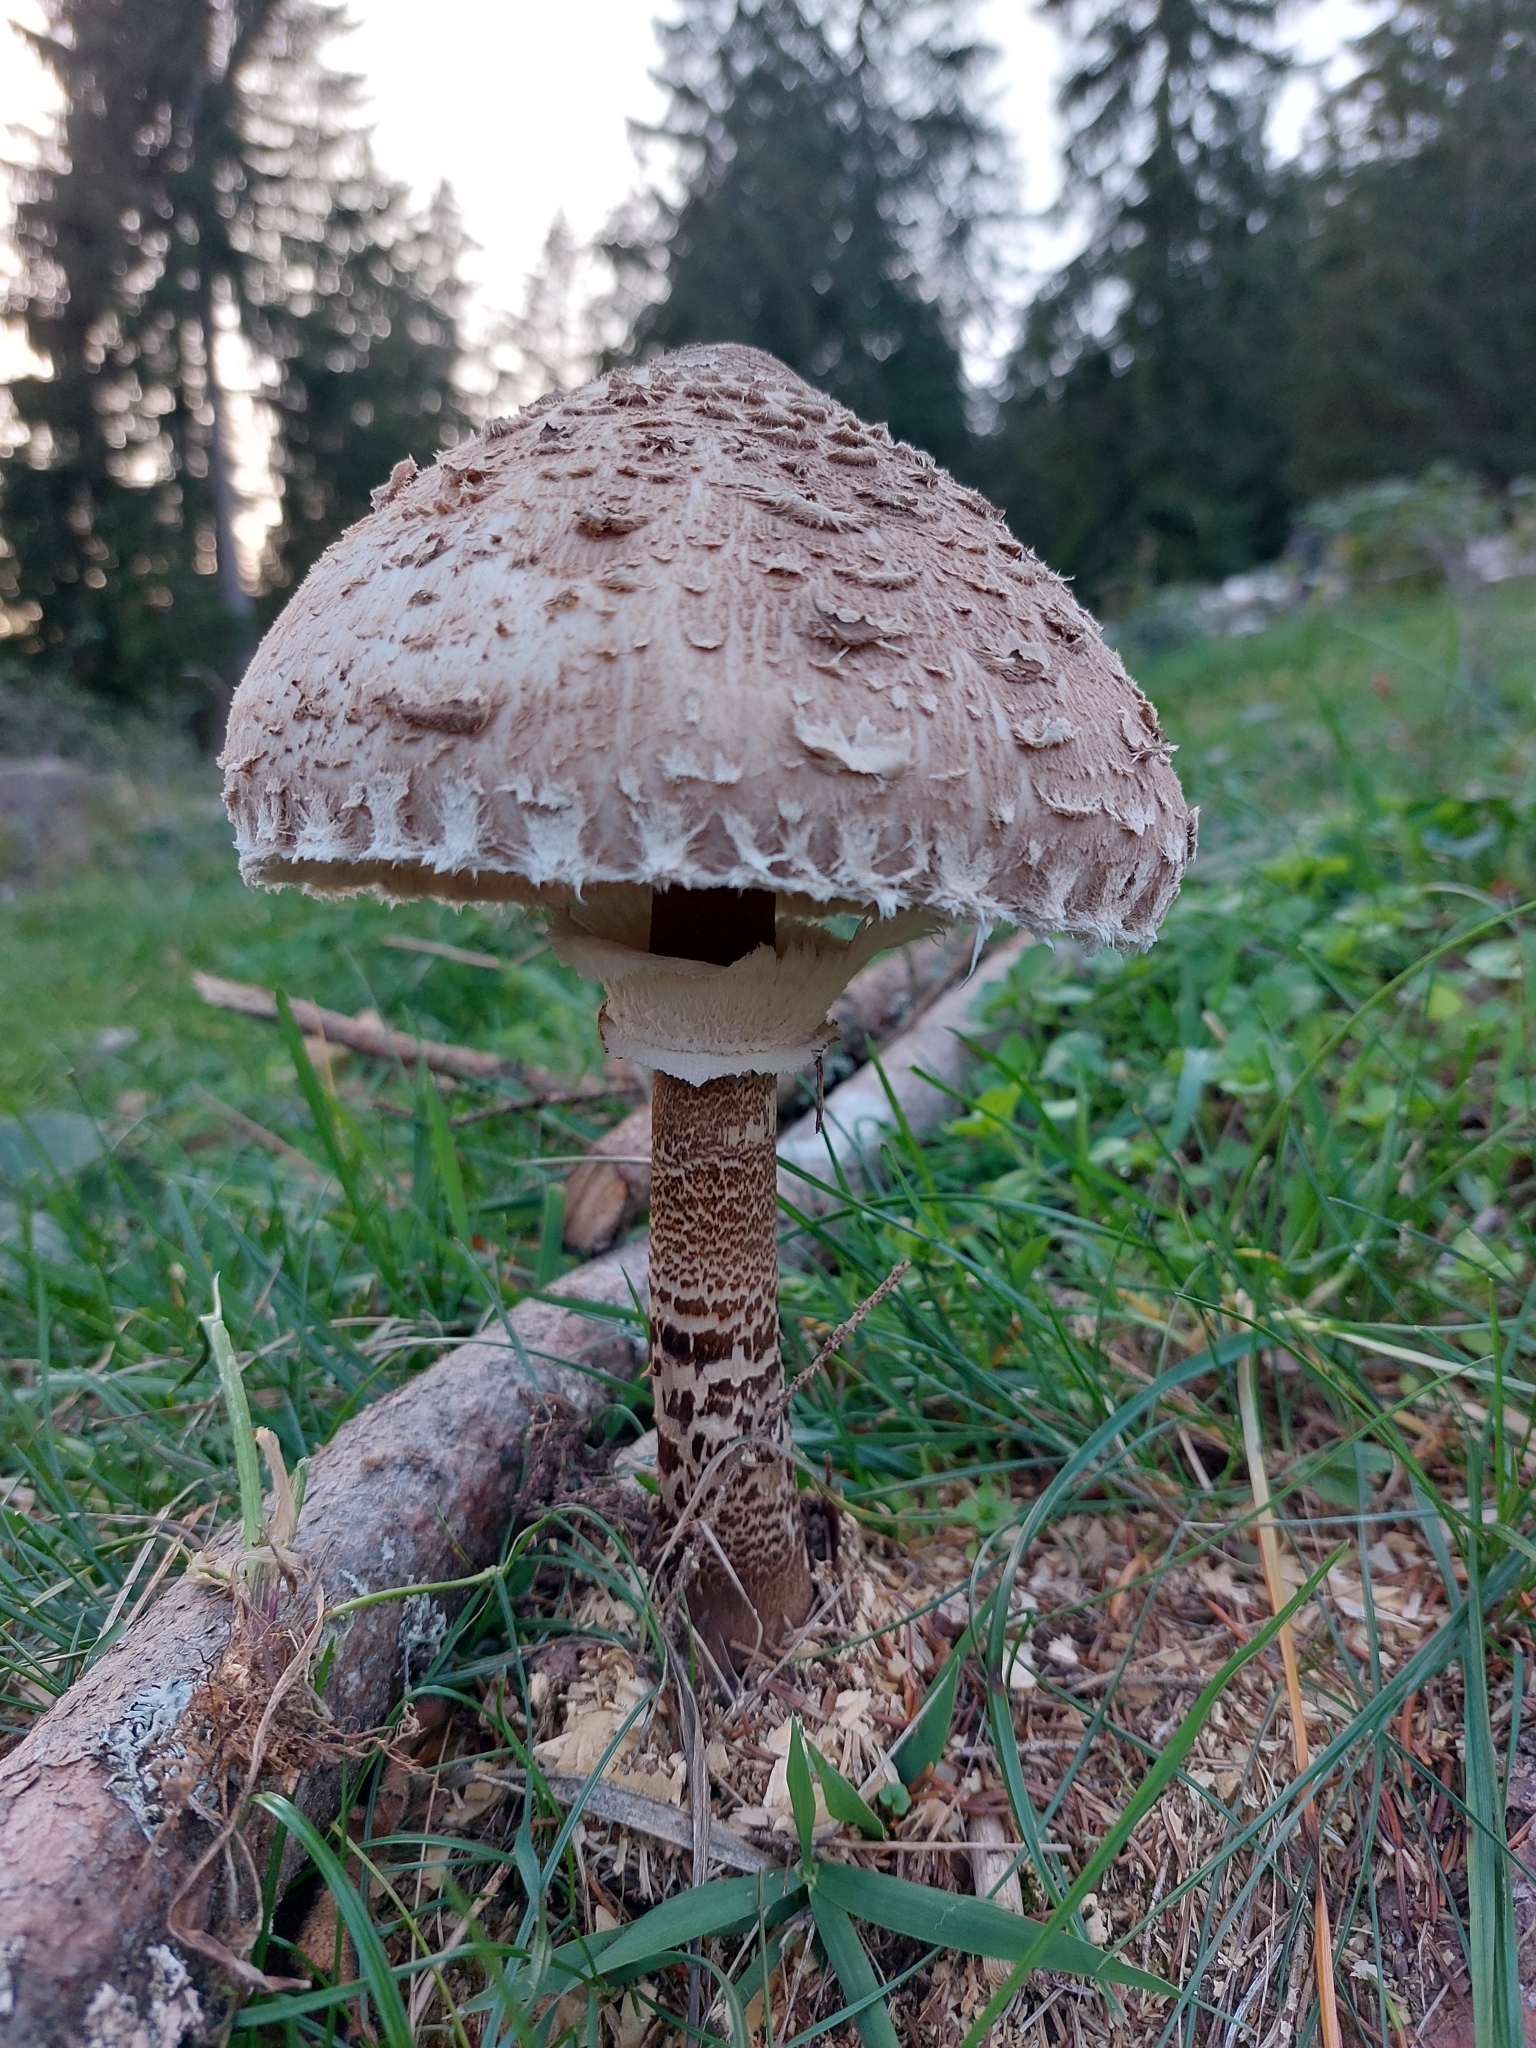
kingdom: Fungi
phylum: Basidiomycota
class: Agaricomycetes
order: Agaricales
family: Agaricaceae
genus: Macrolepiota
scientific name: Macrolepiota procera
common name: Parasol
